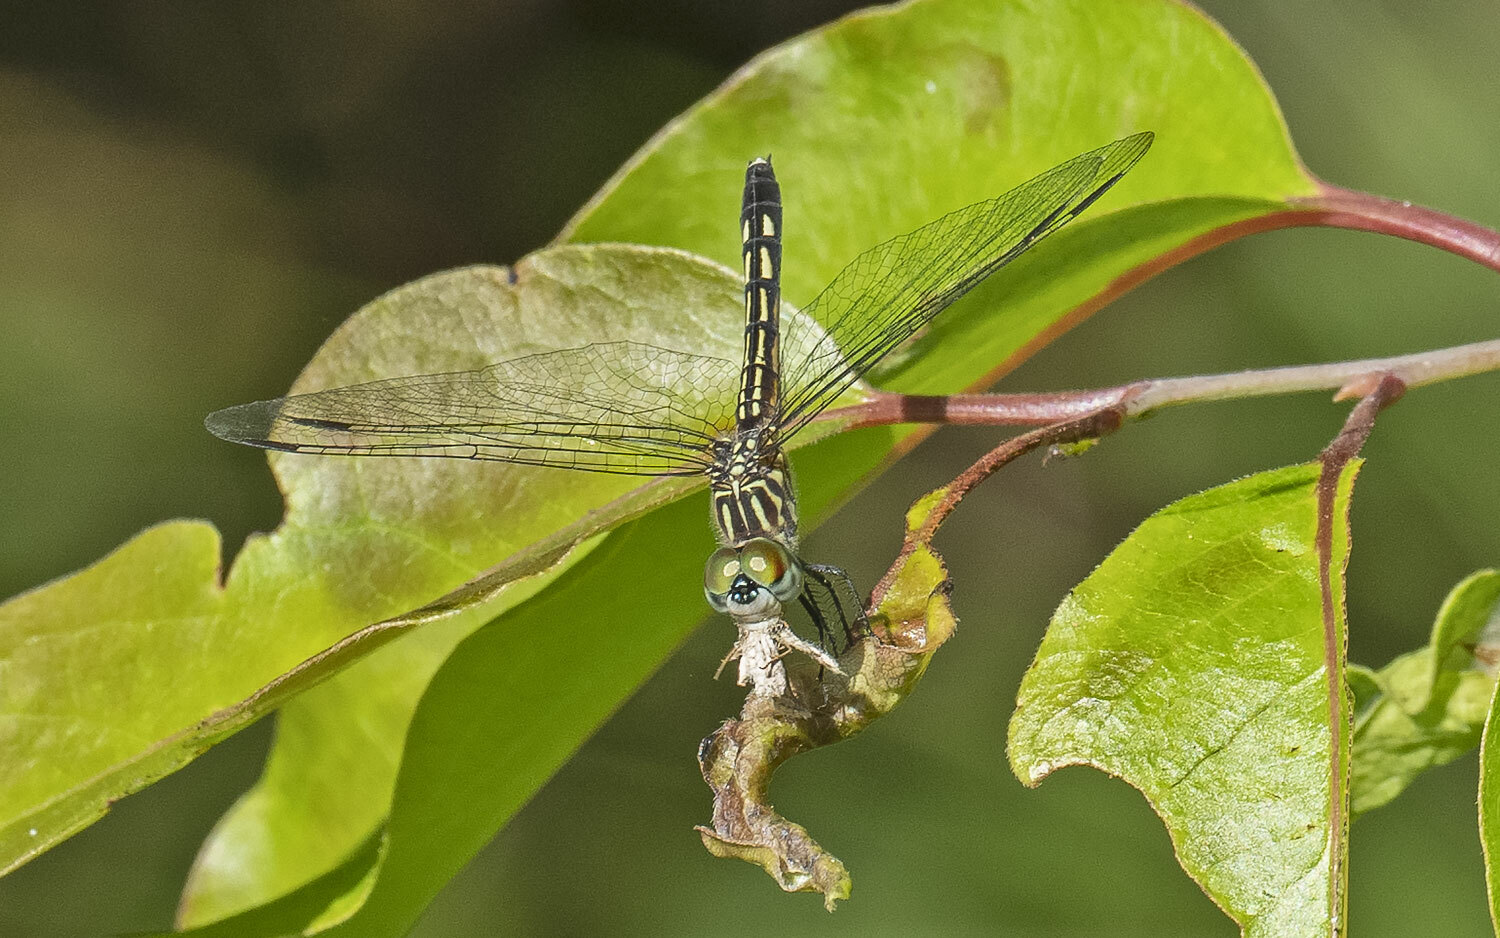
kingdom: Animalia
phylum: Arthropoda
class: Insecta
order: Odonata
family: Libellulidae
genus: Pachydiplax
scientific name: Pachydiplax longipennis
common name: Blue dasher
